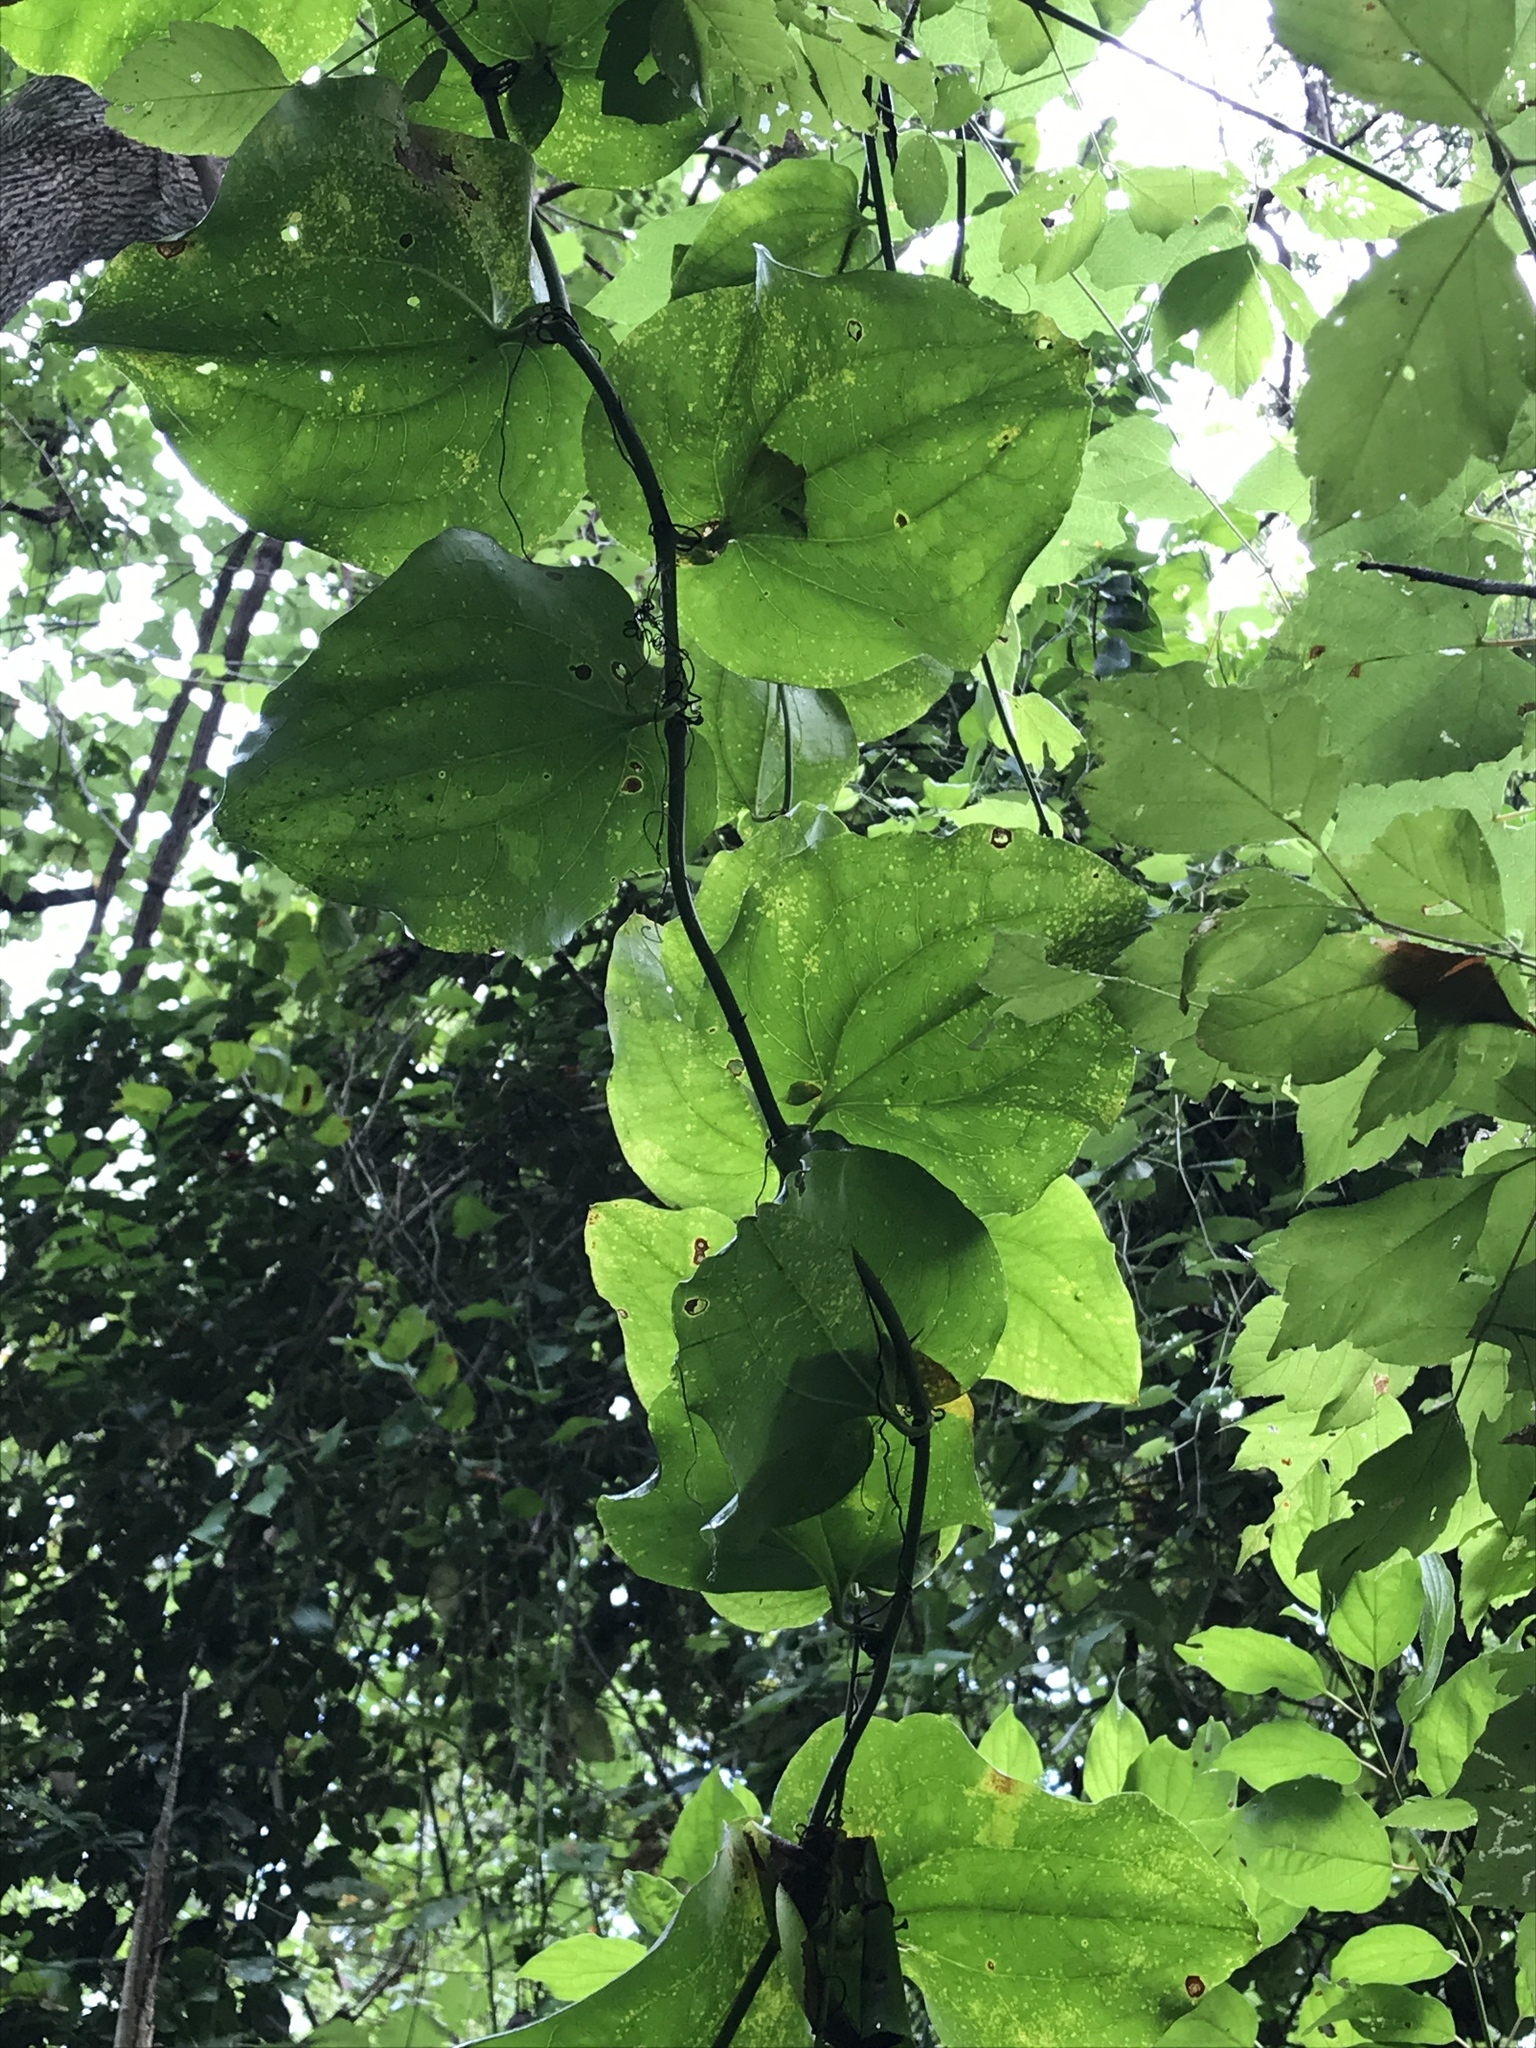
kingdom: Plantae
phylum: Tracheophyta
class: Liliopsida
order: Liliales
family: Smilacaceae
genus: Smilax
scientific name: Smilax tamnoides
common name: Hellfetter
